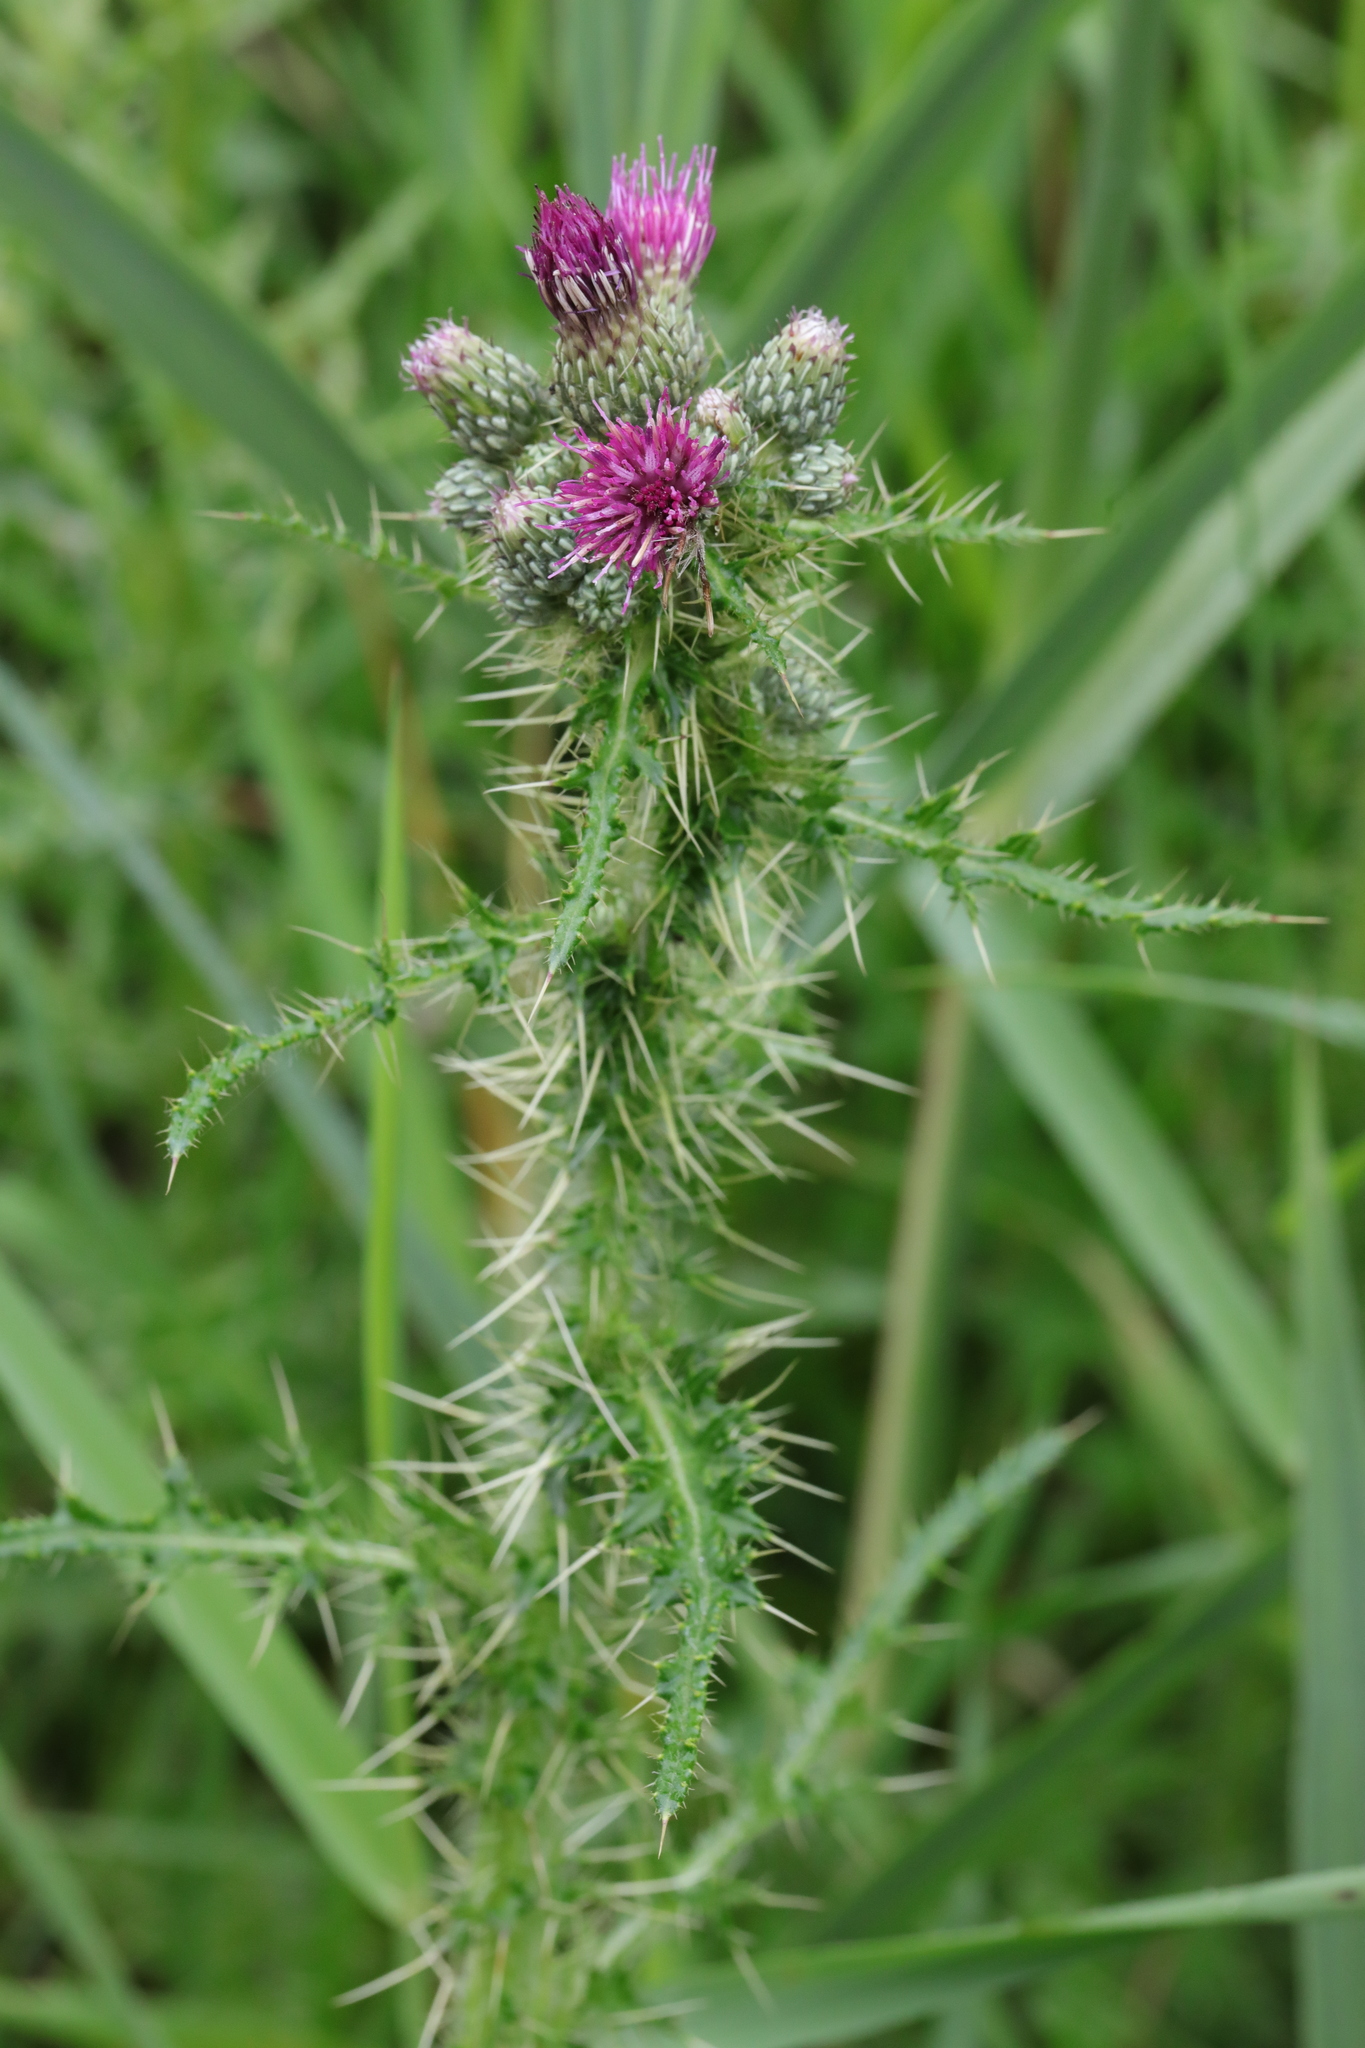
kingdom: Plantae
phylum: Tracheophyta
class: Magnoliopsida
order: Asterales
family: Asteraceae
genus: Cirsium
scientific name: Cirsium palustre
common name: Marsh thistle
